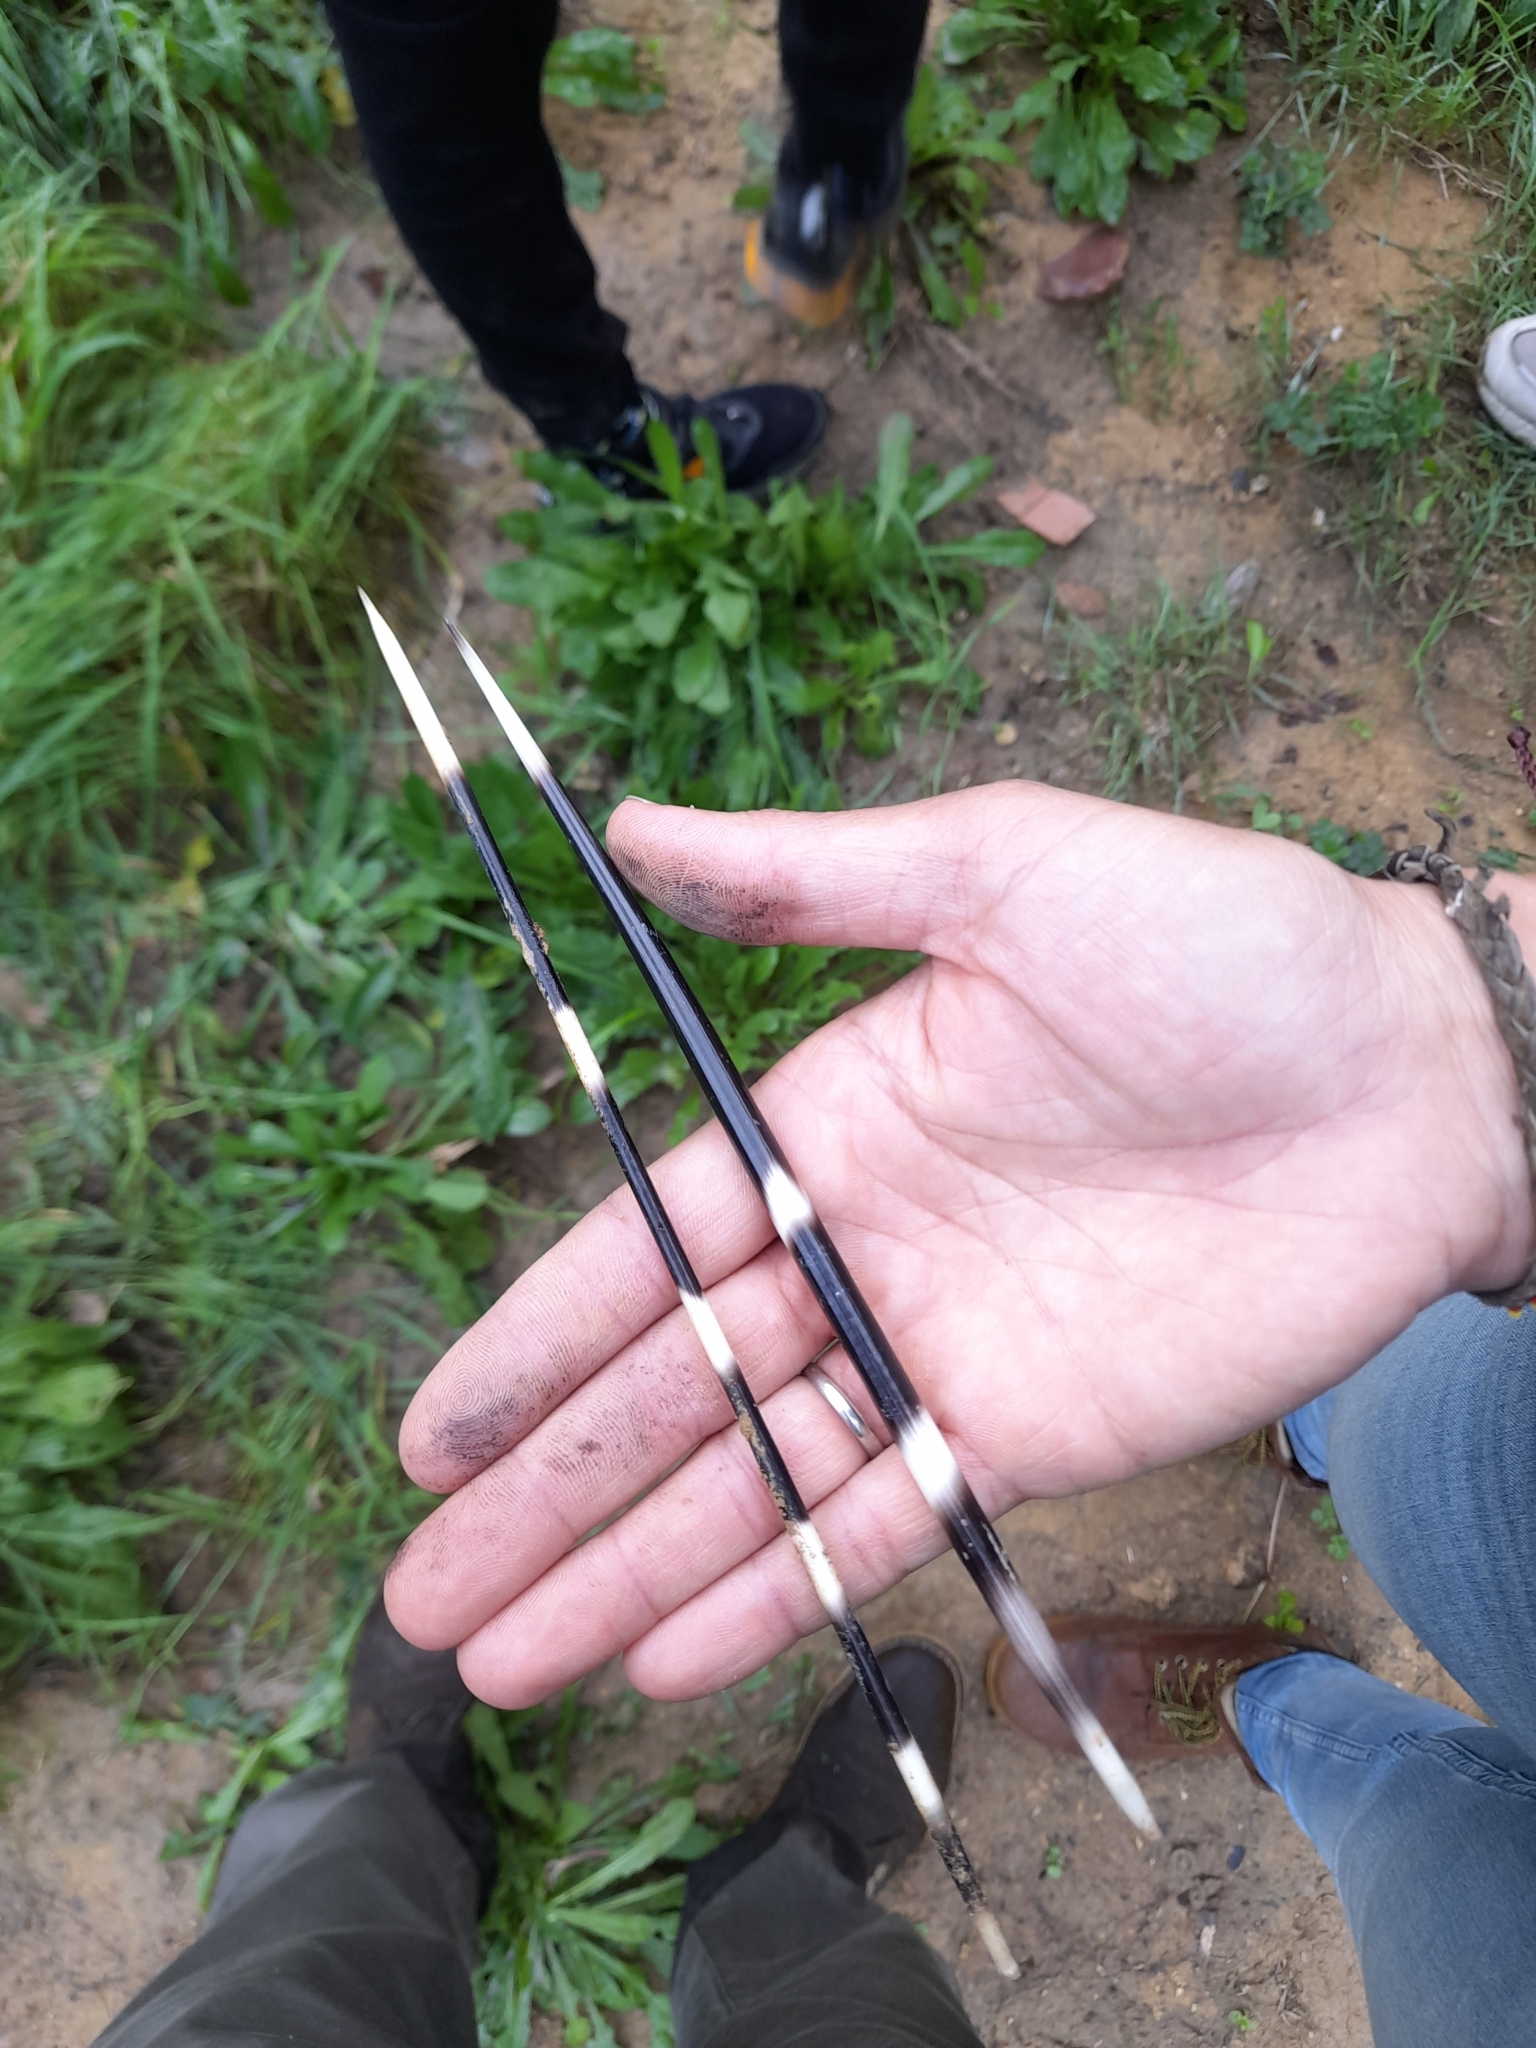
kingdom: Animalia
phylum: Chordata
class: Mammalia
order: Rodentia
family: Hystricidae
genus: Hystrix
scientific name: Hystrix cristata
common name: Crested porcupine
